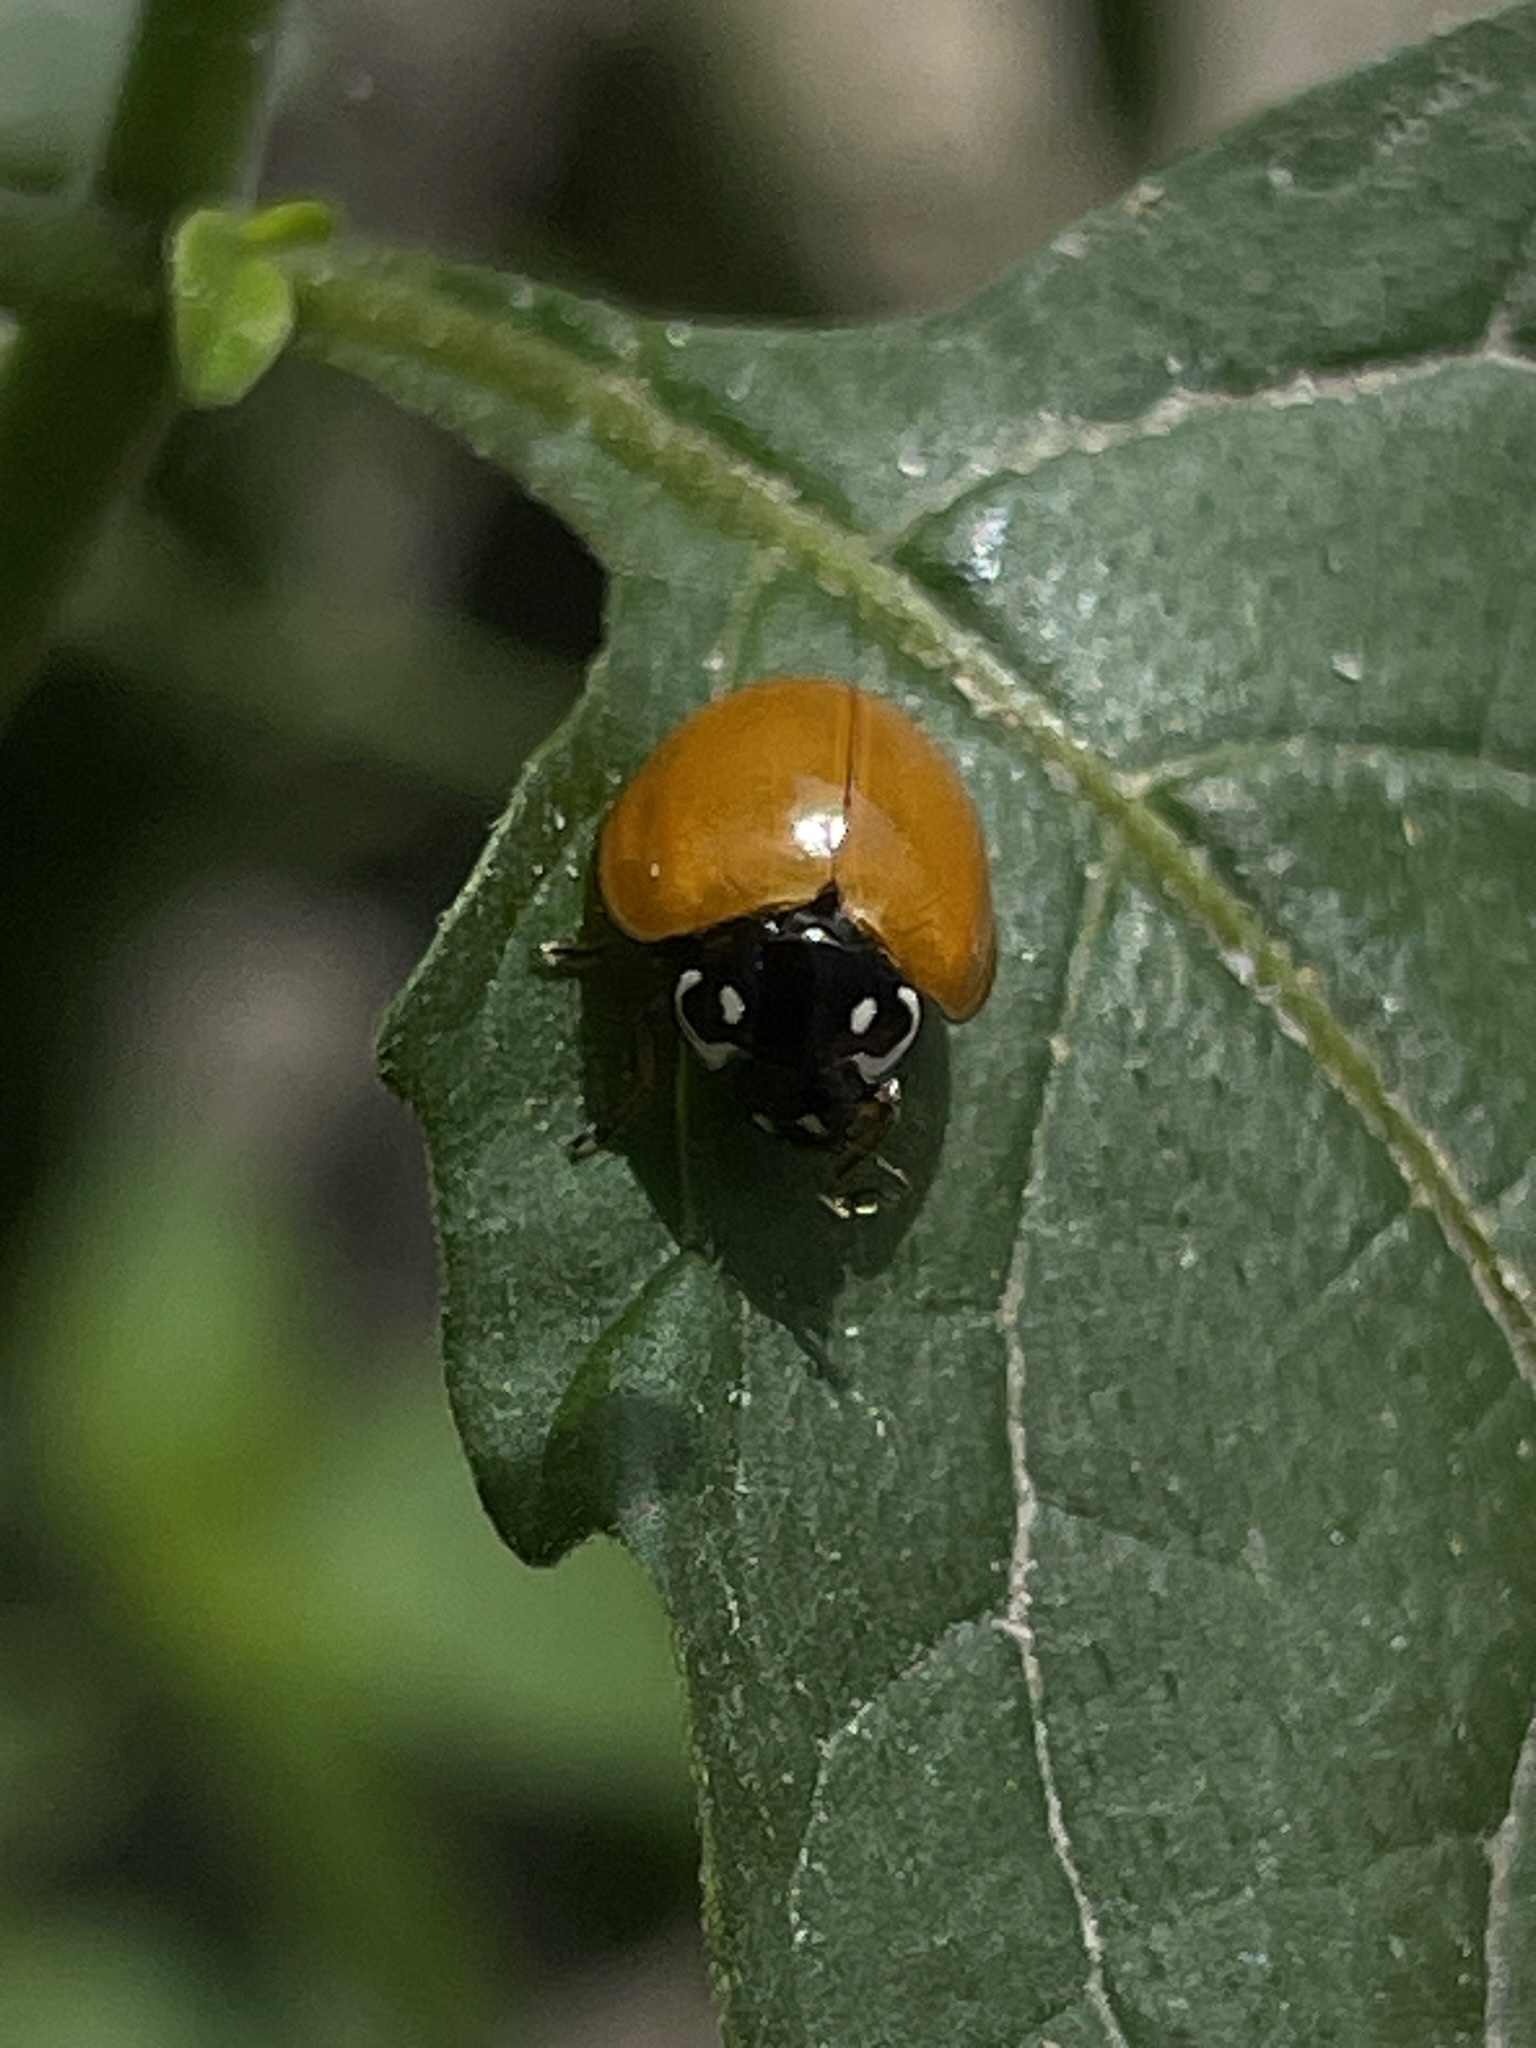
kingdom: Animalia
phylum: Arthropoda
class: Insecta
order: Coleoptera
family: Coccinellidae
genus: Cycloneda
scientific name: Cycloneda sanguinea
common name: Ladybird beetle
